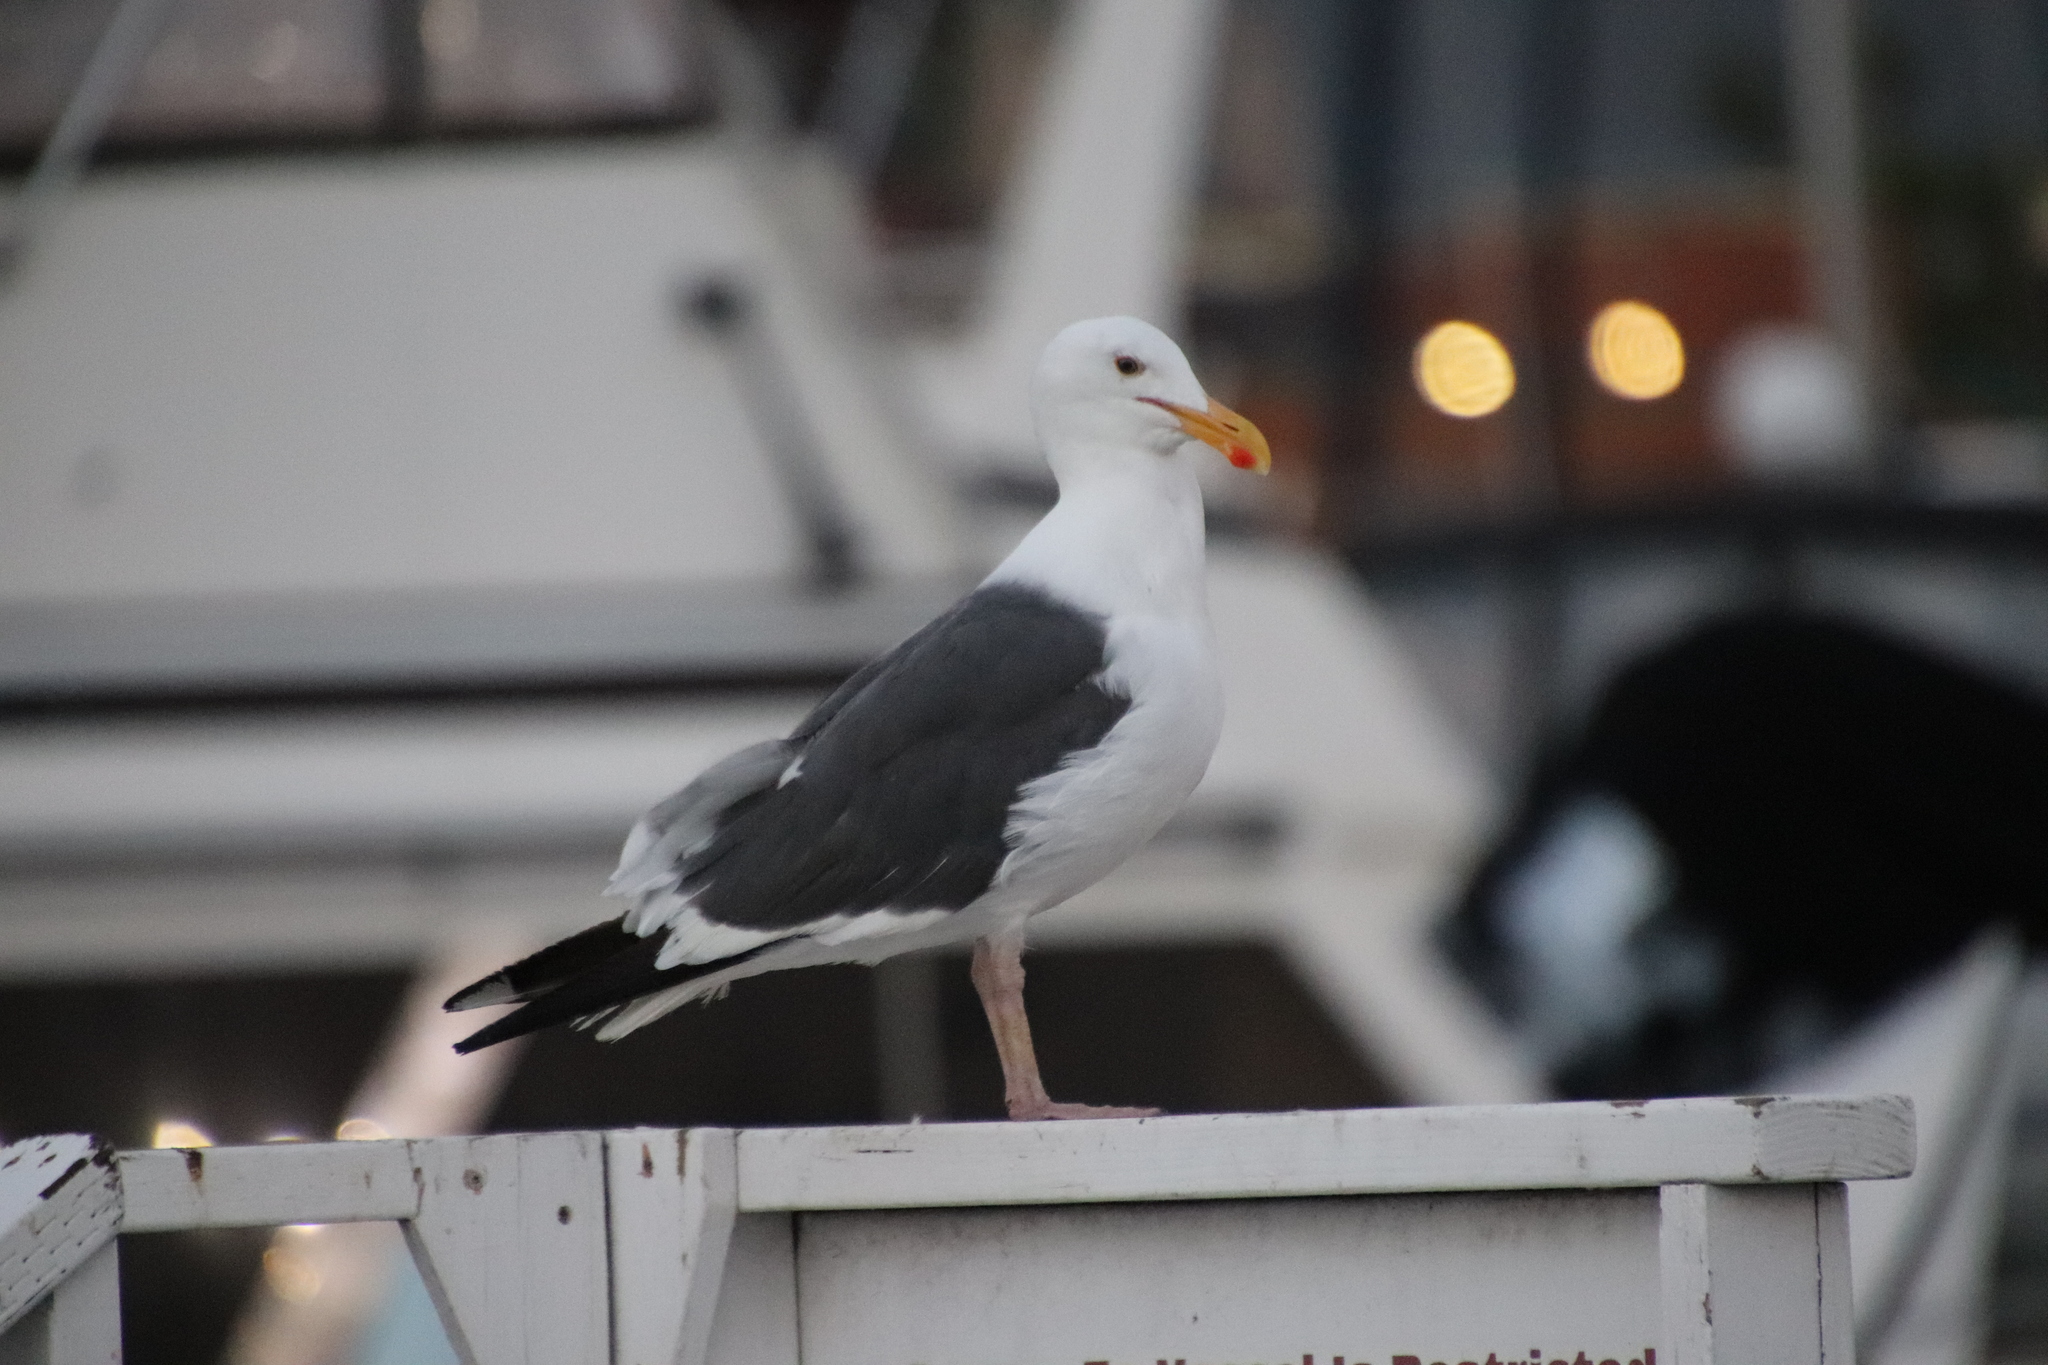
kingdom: Animalia
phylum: Chordata
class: Aves
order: Charadriiformes
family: Laridae
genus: Larus
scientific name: Larus occidentalis
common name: Western gull
